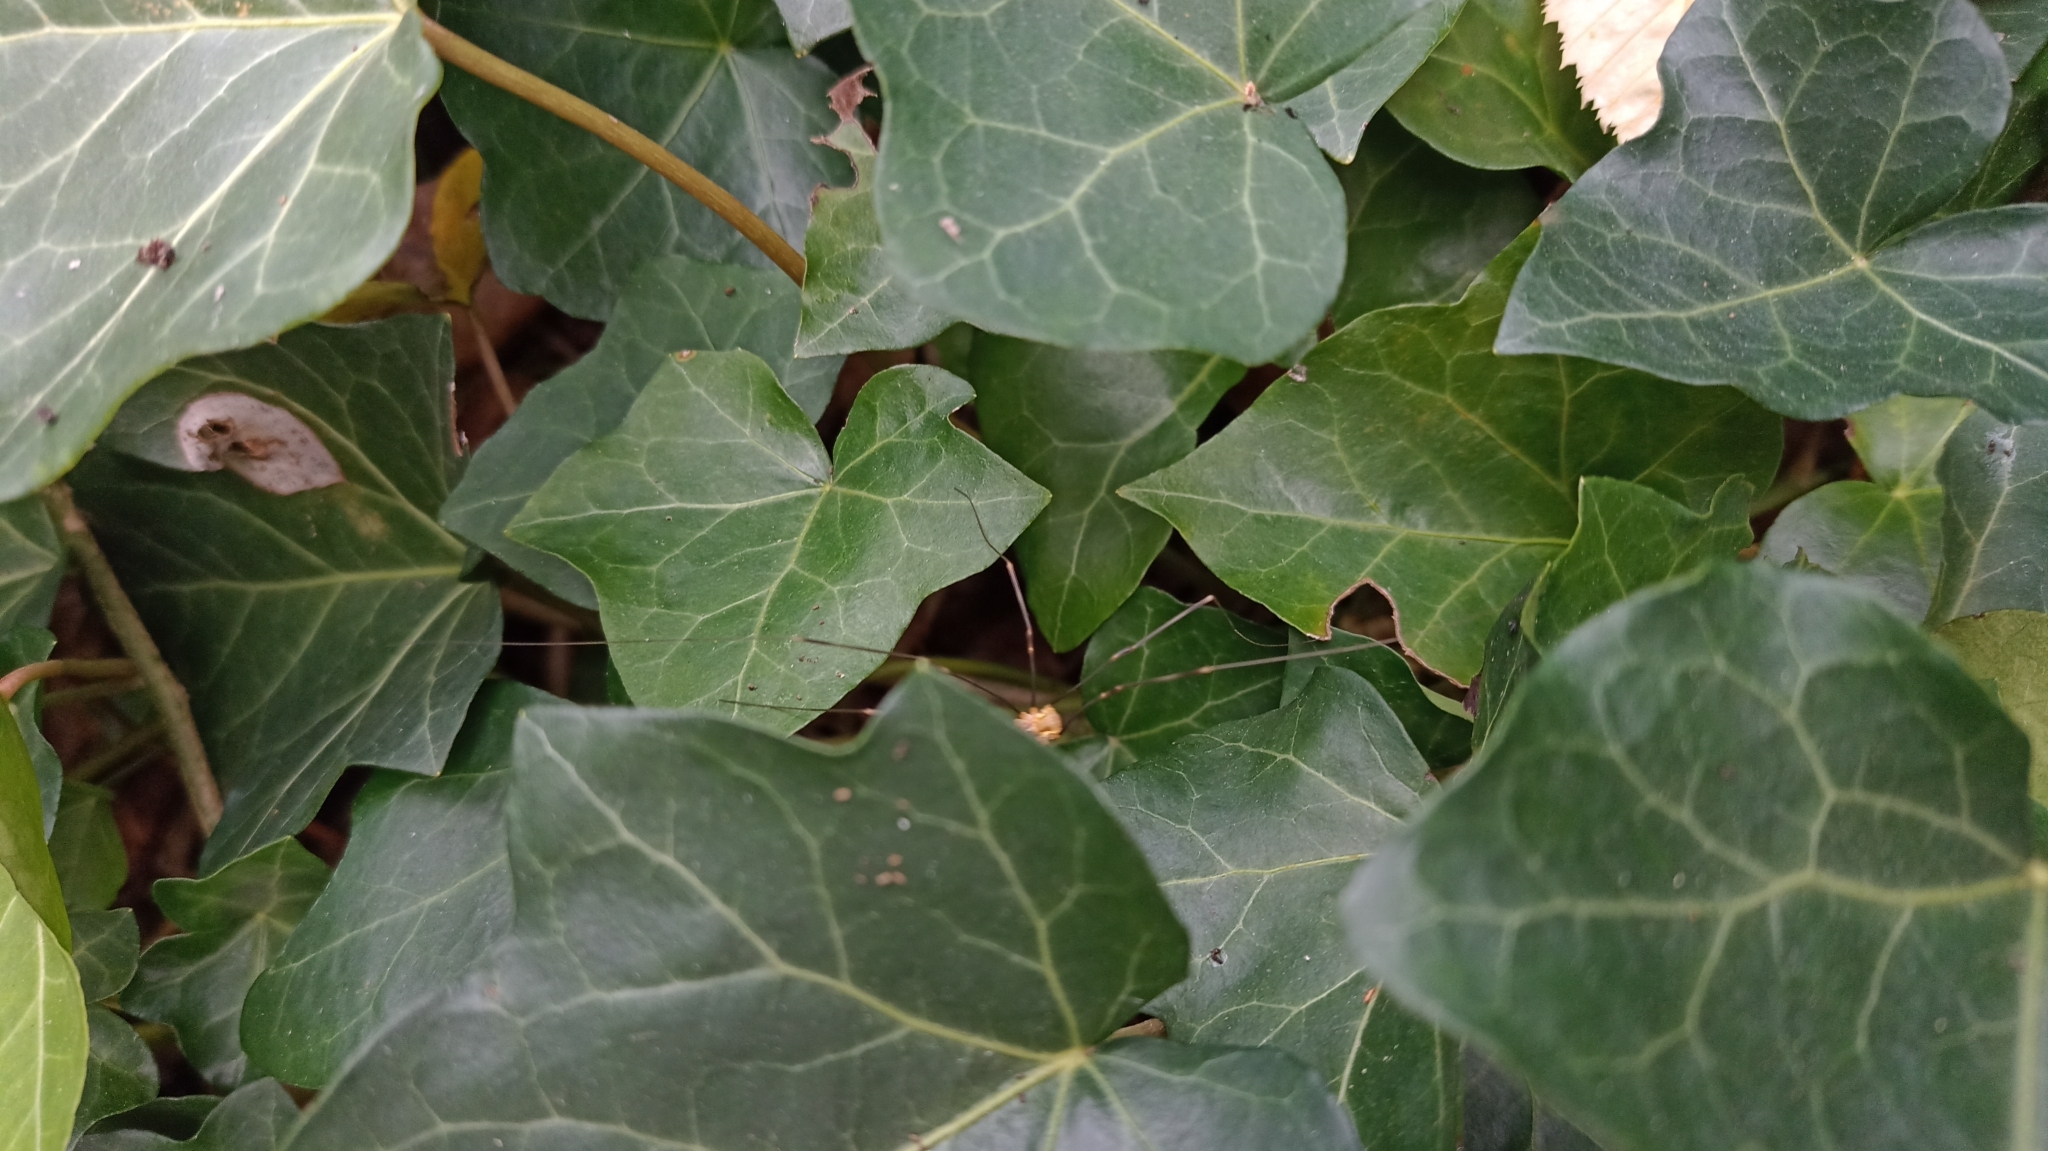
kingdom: Animalia
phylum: Arthropoda
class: Arachnida
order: Opiliones
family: Phalangiidae
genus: Opilio
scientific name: Opilio canestrinii
